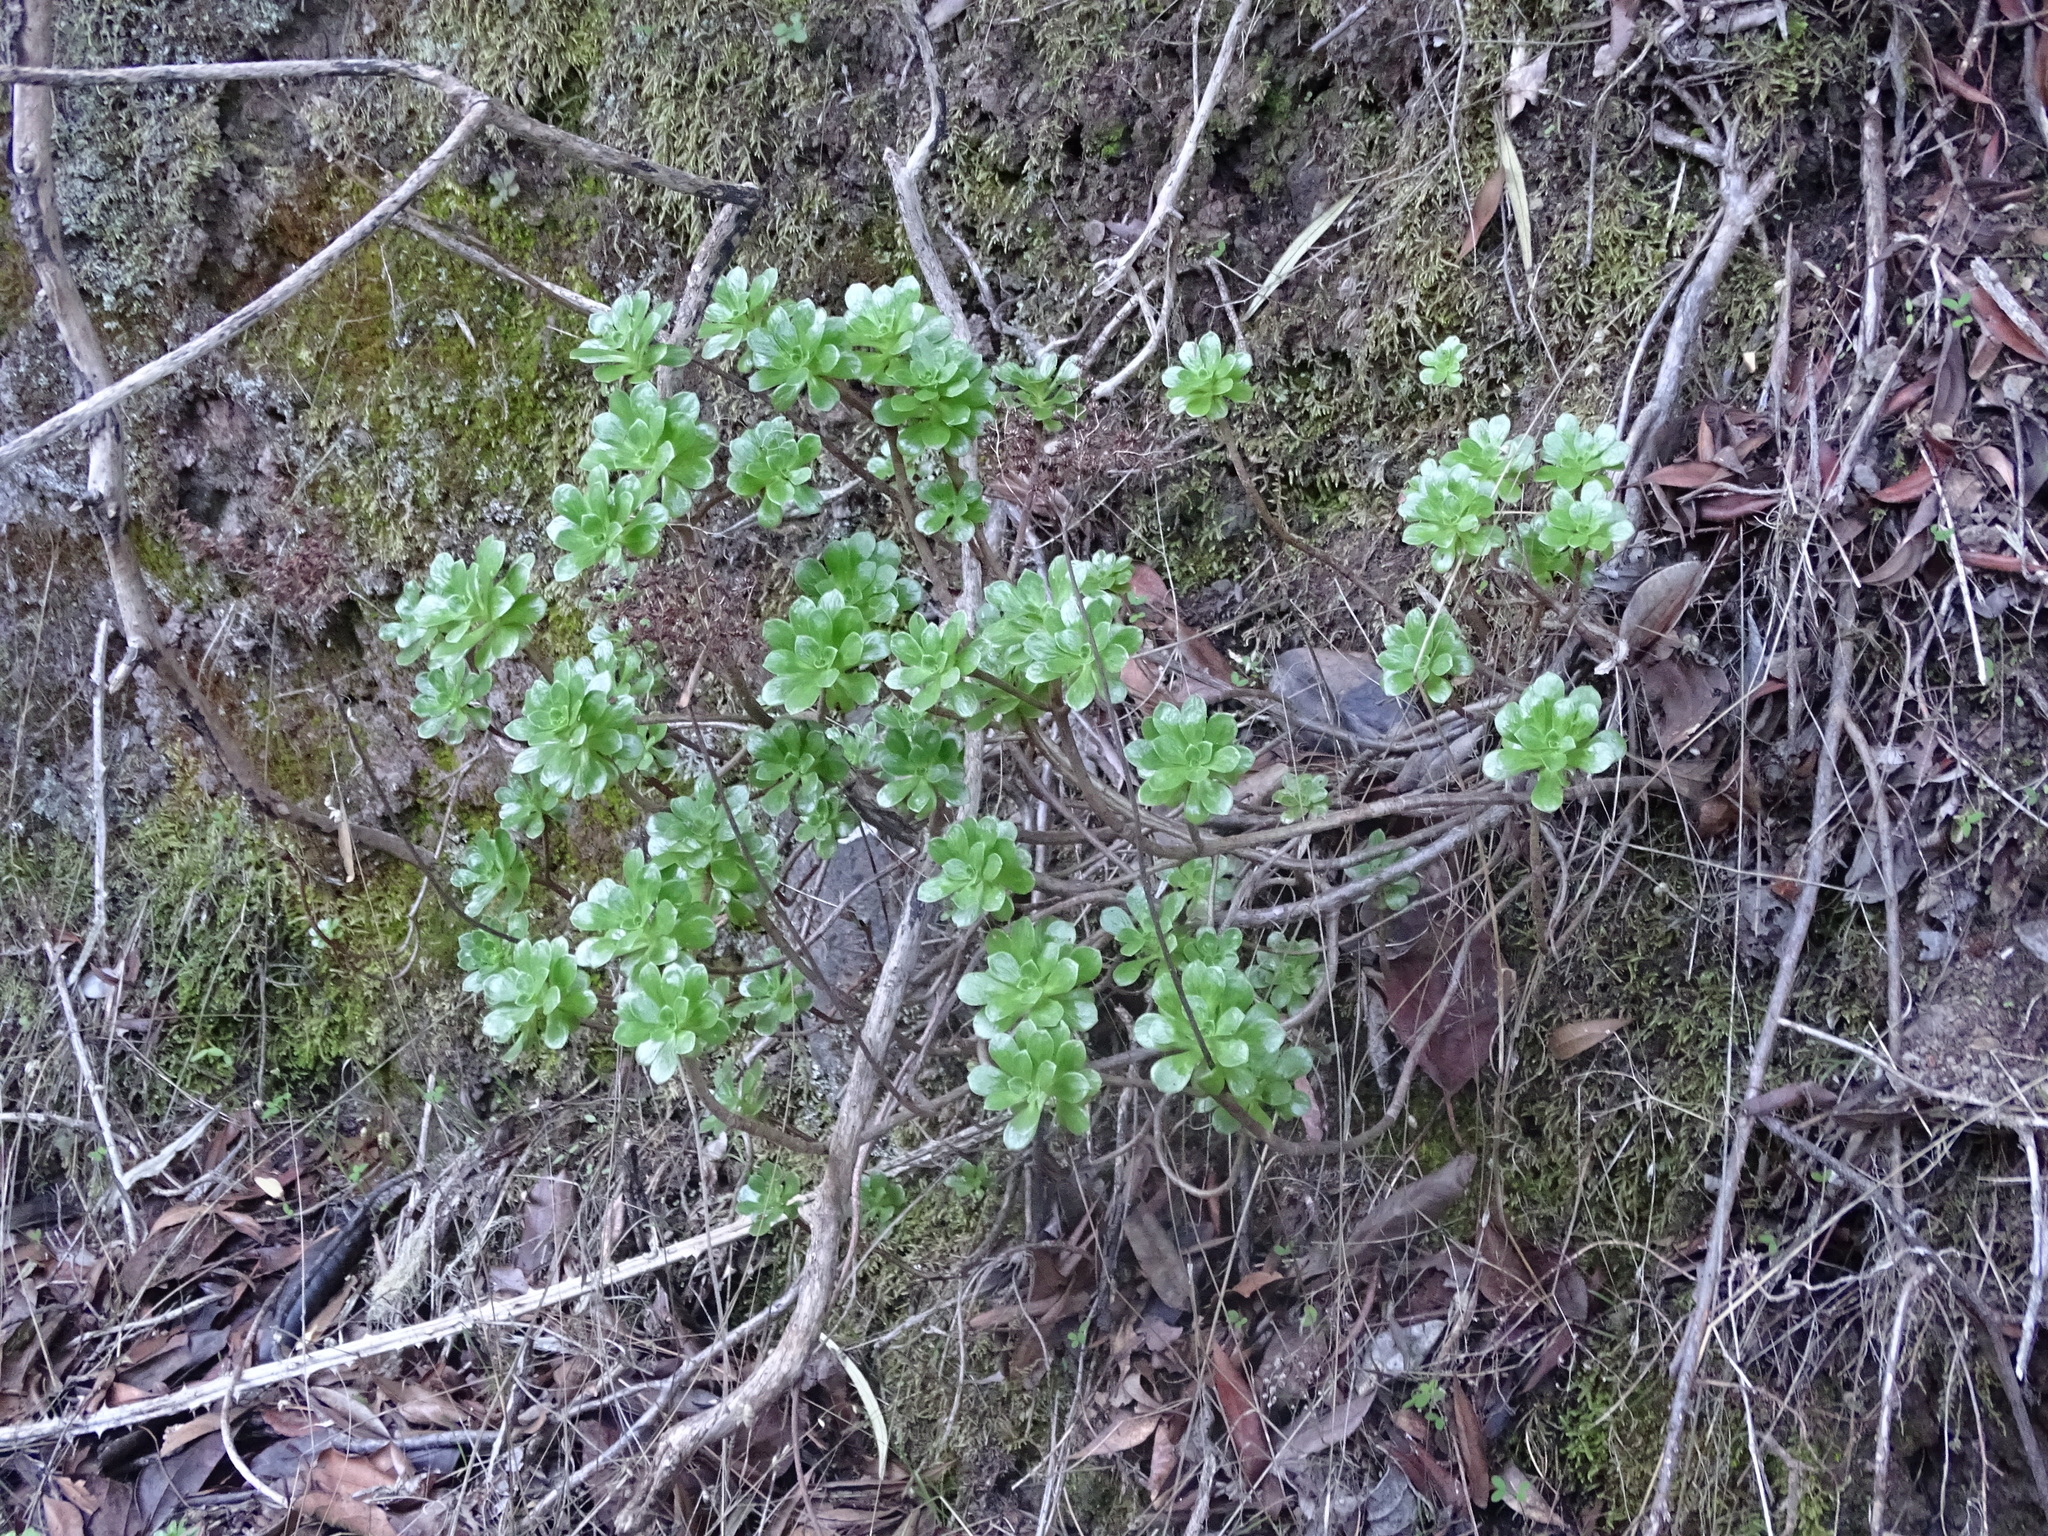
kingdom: Plantae
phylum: Tracheophyta
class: Magnoliopsida
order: Saxifragales
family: Crassulaceae
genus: Aeonium
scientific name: Aeonium spathulatum
